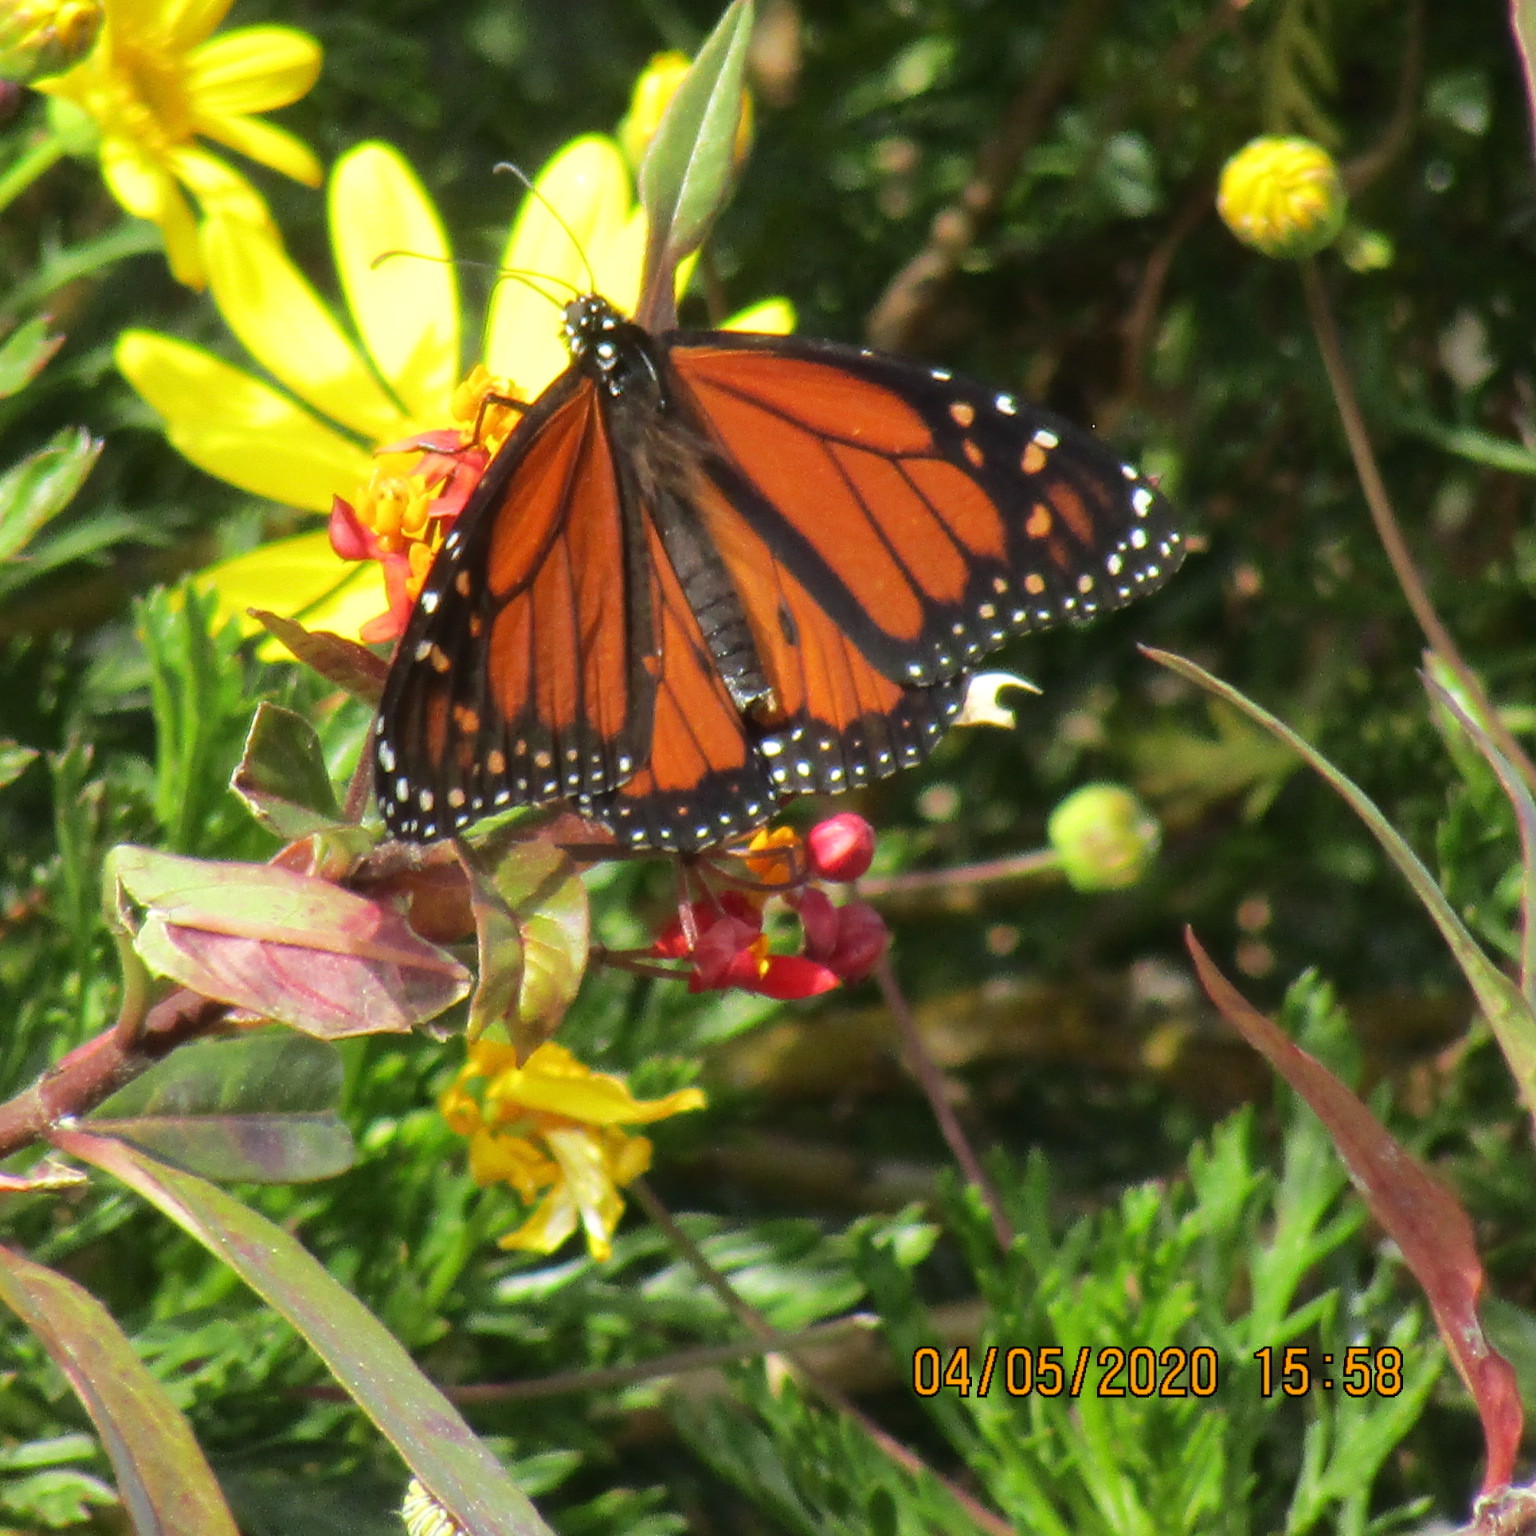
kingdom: Animalia
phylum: Arthropoda
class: Insecta
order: Lepidoptera
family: Nymphalidae
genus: Danaus
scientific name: Danaus plexippus
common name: Monarch
